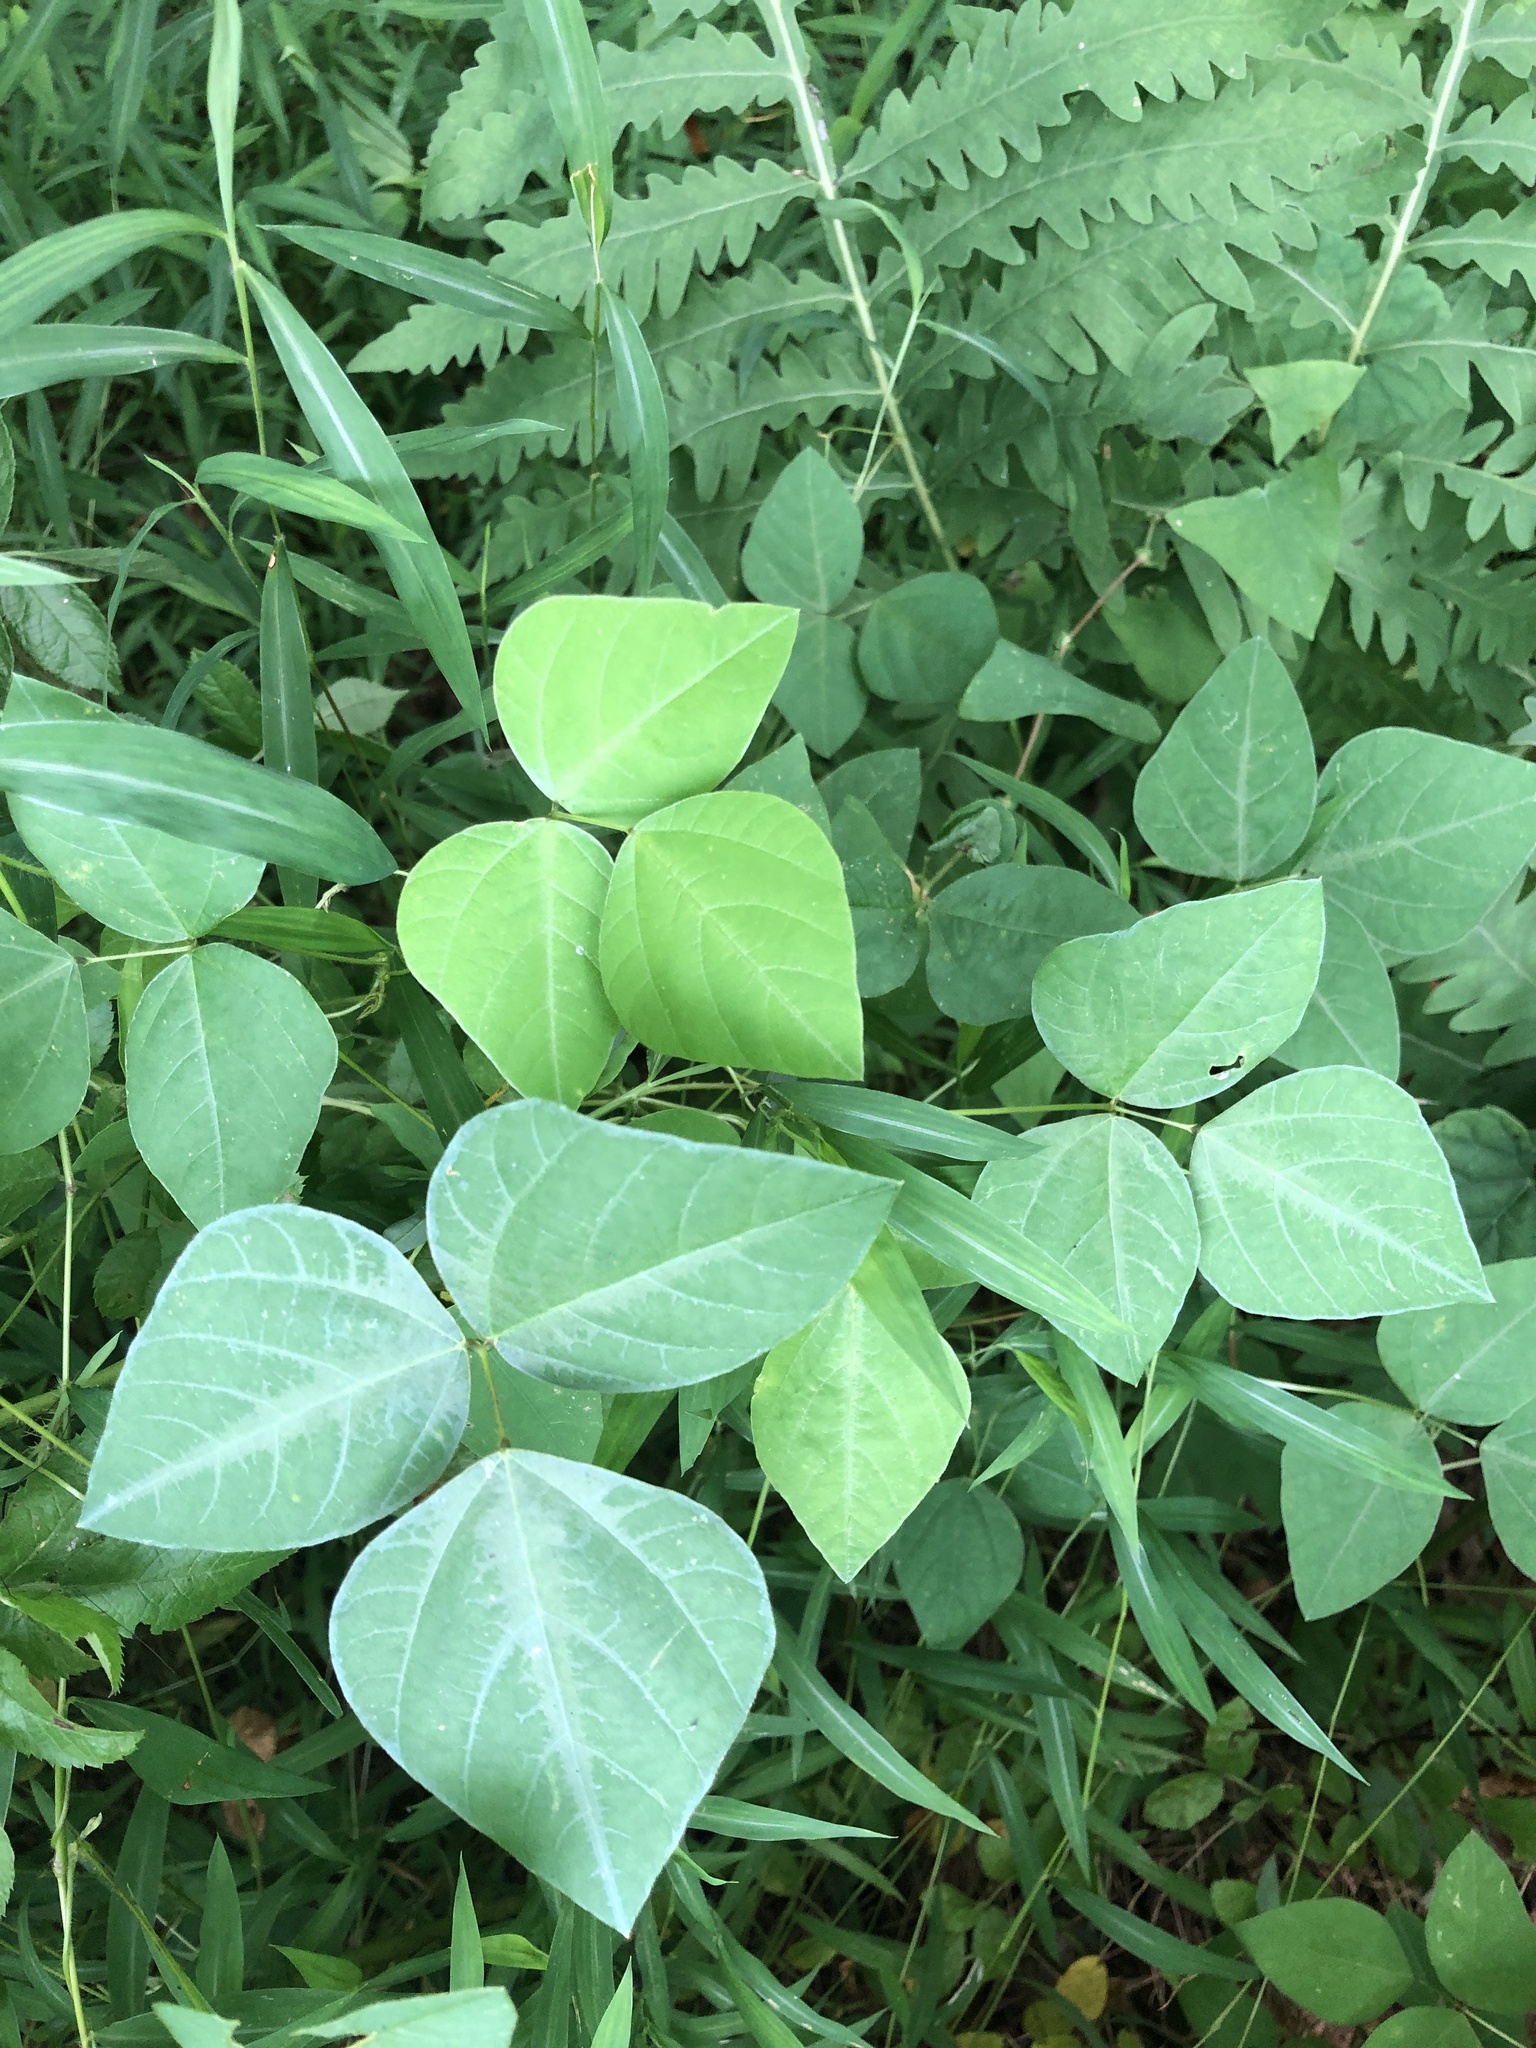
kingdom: Plantae
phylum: Tracheophyta
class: Magnoliopsida
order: Fabales
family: Fabaceae
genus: Amphicarpaea
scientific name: Amphicarpaea bracteata
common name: American hog peanut
